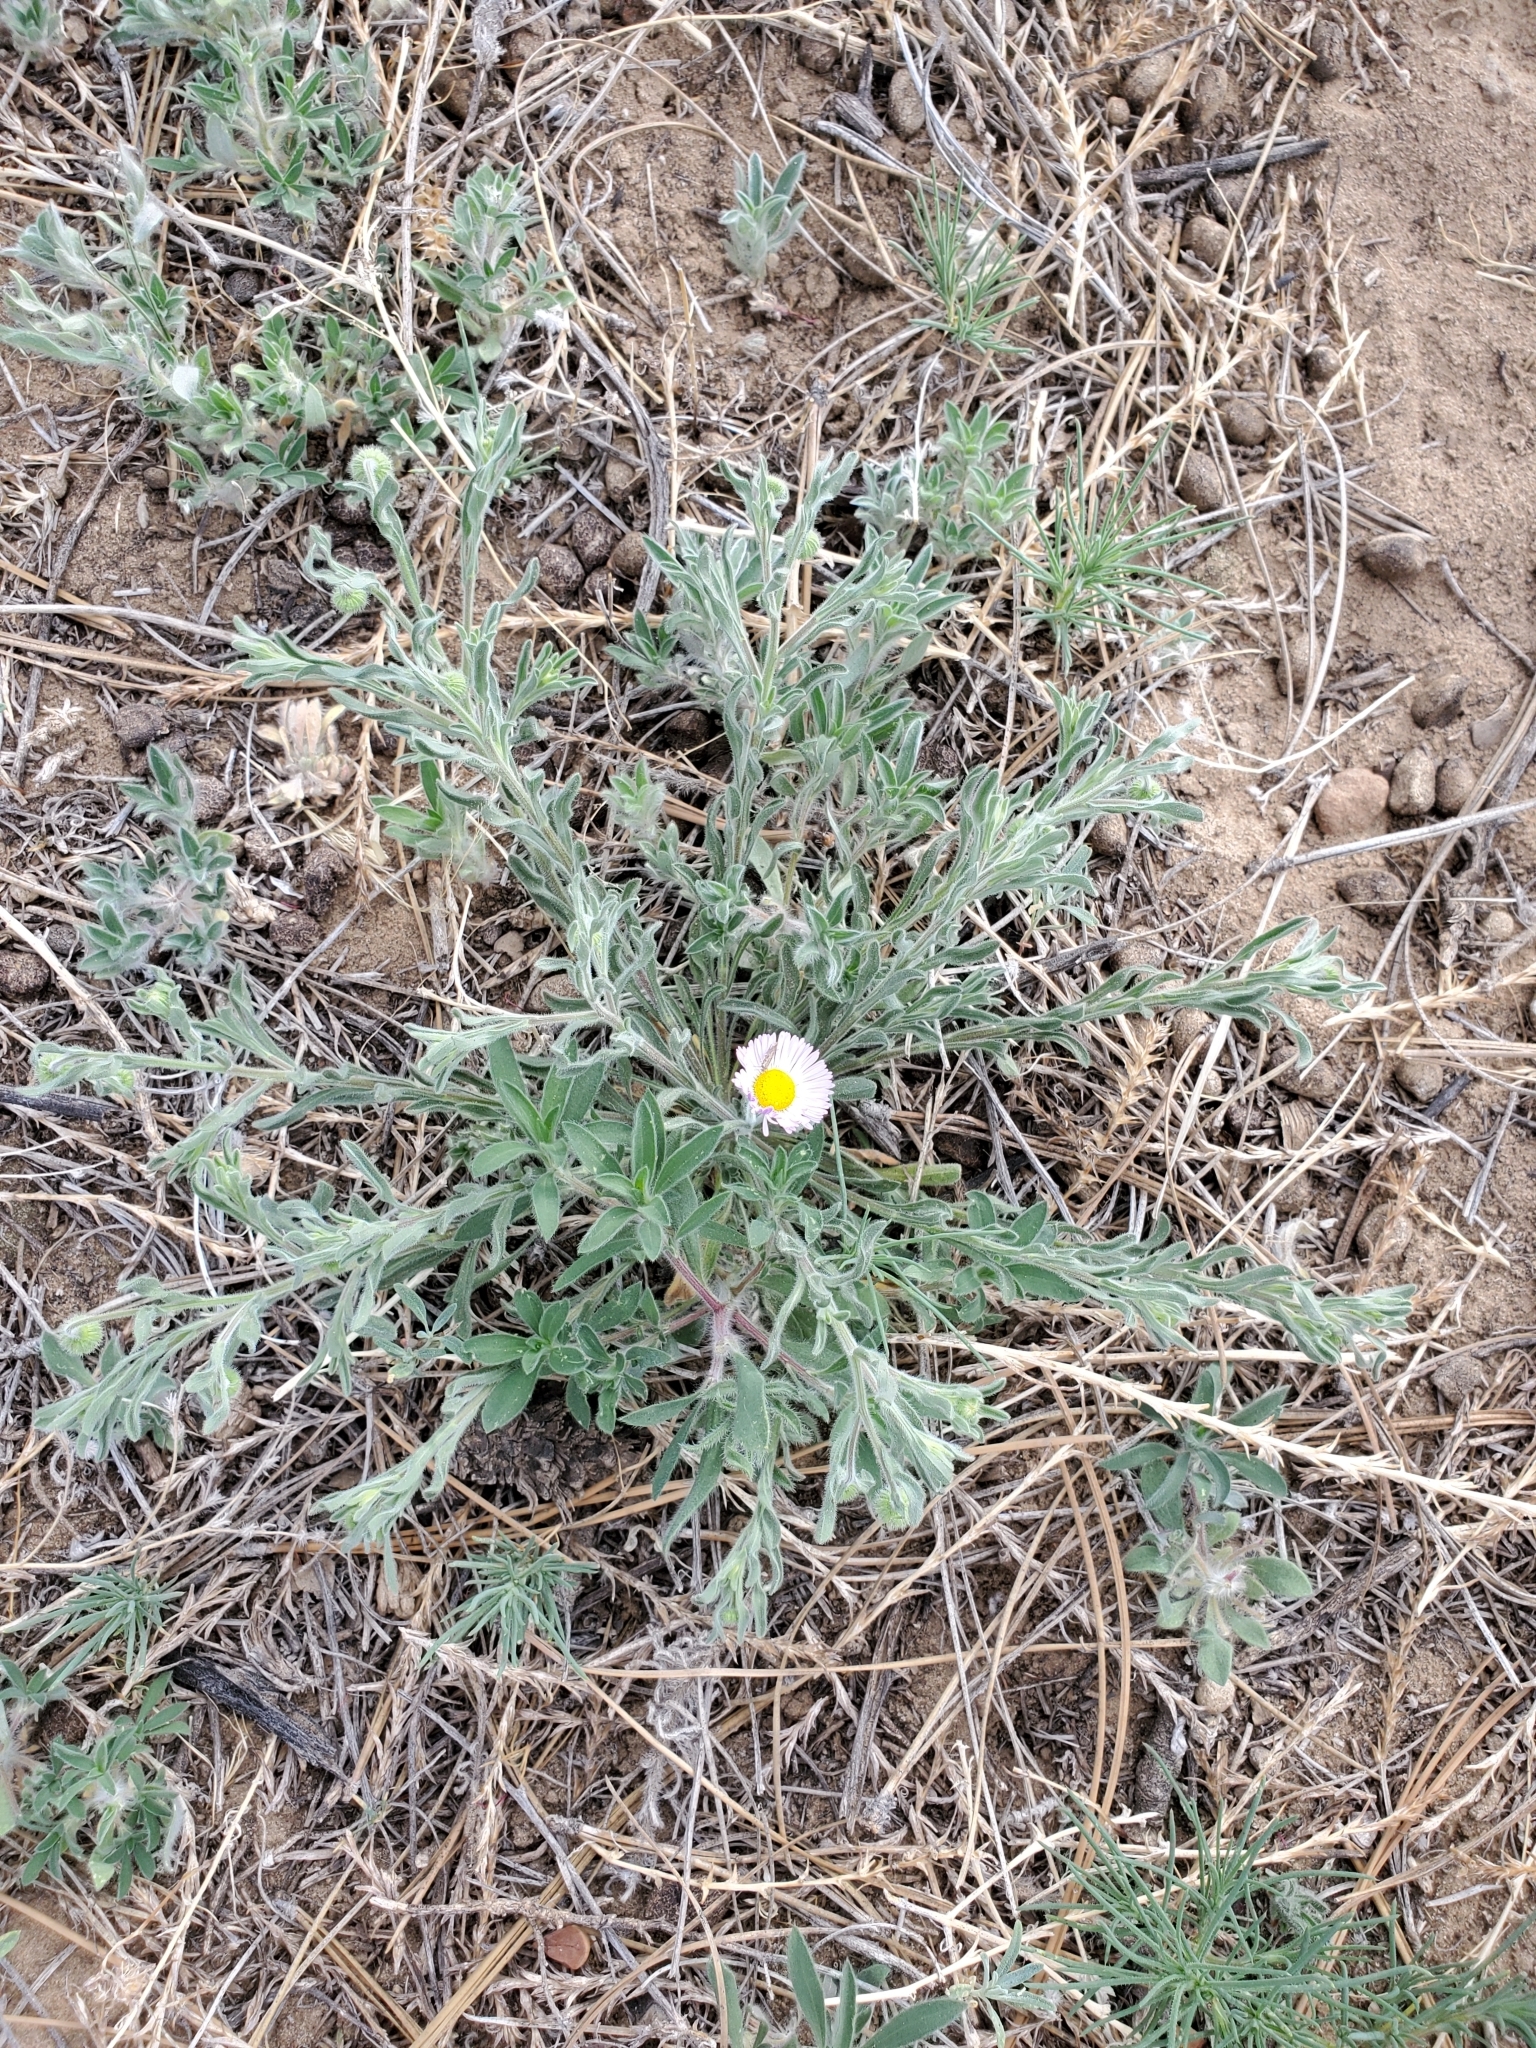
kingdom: Plantae
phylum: Tracheophyta
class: Magnoliopsida
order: Asterales
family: Asteraceae
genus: Erigeron
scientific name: Erigeron divergens
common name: Diffuse fleabane
